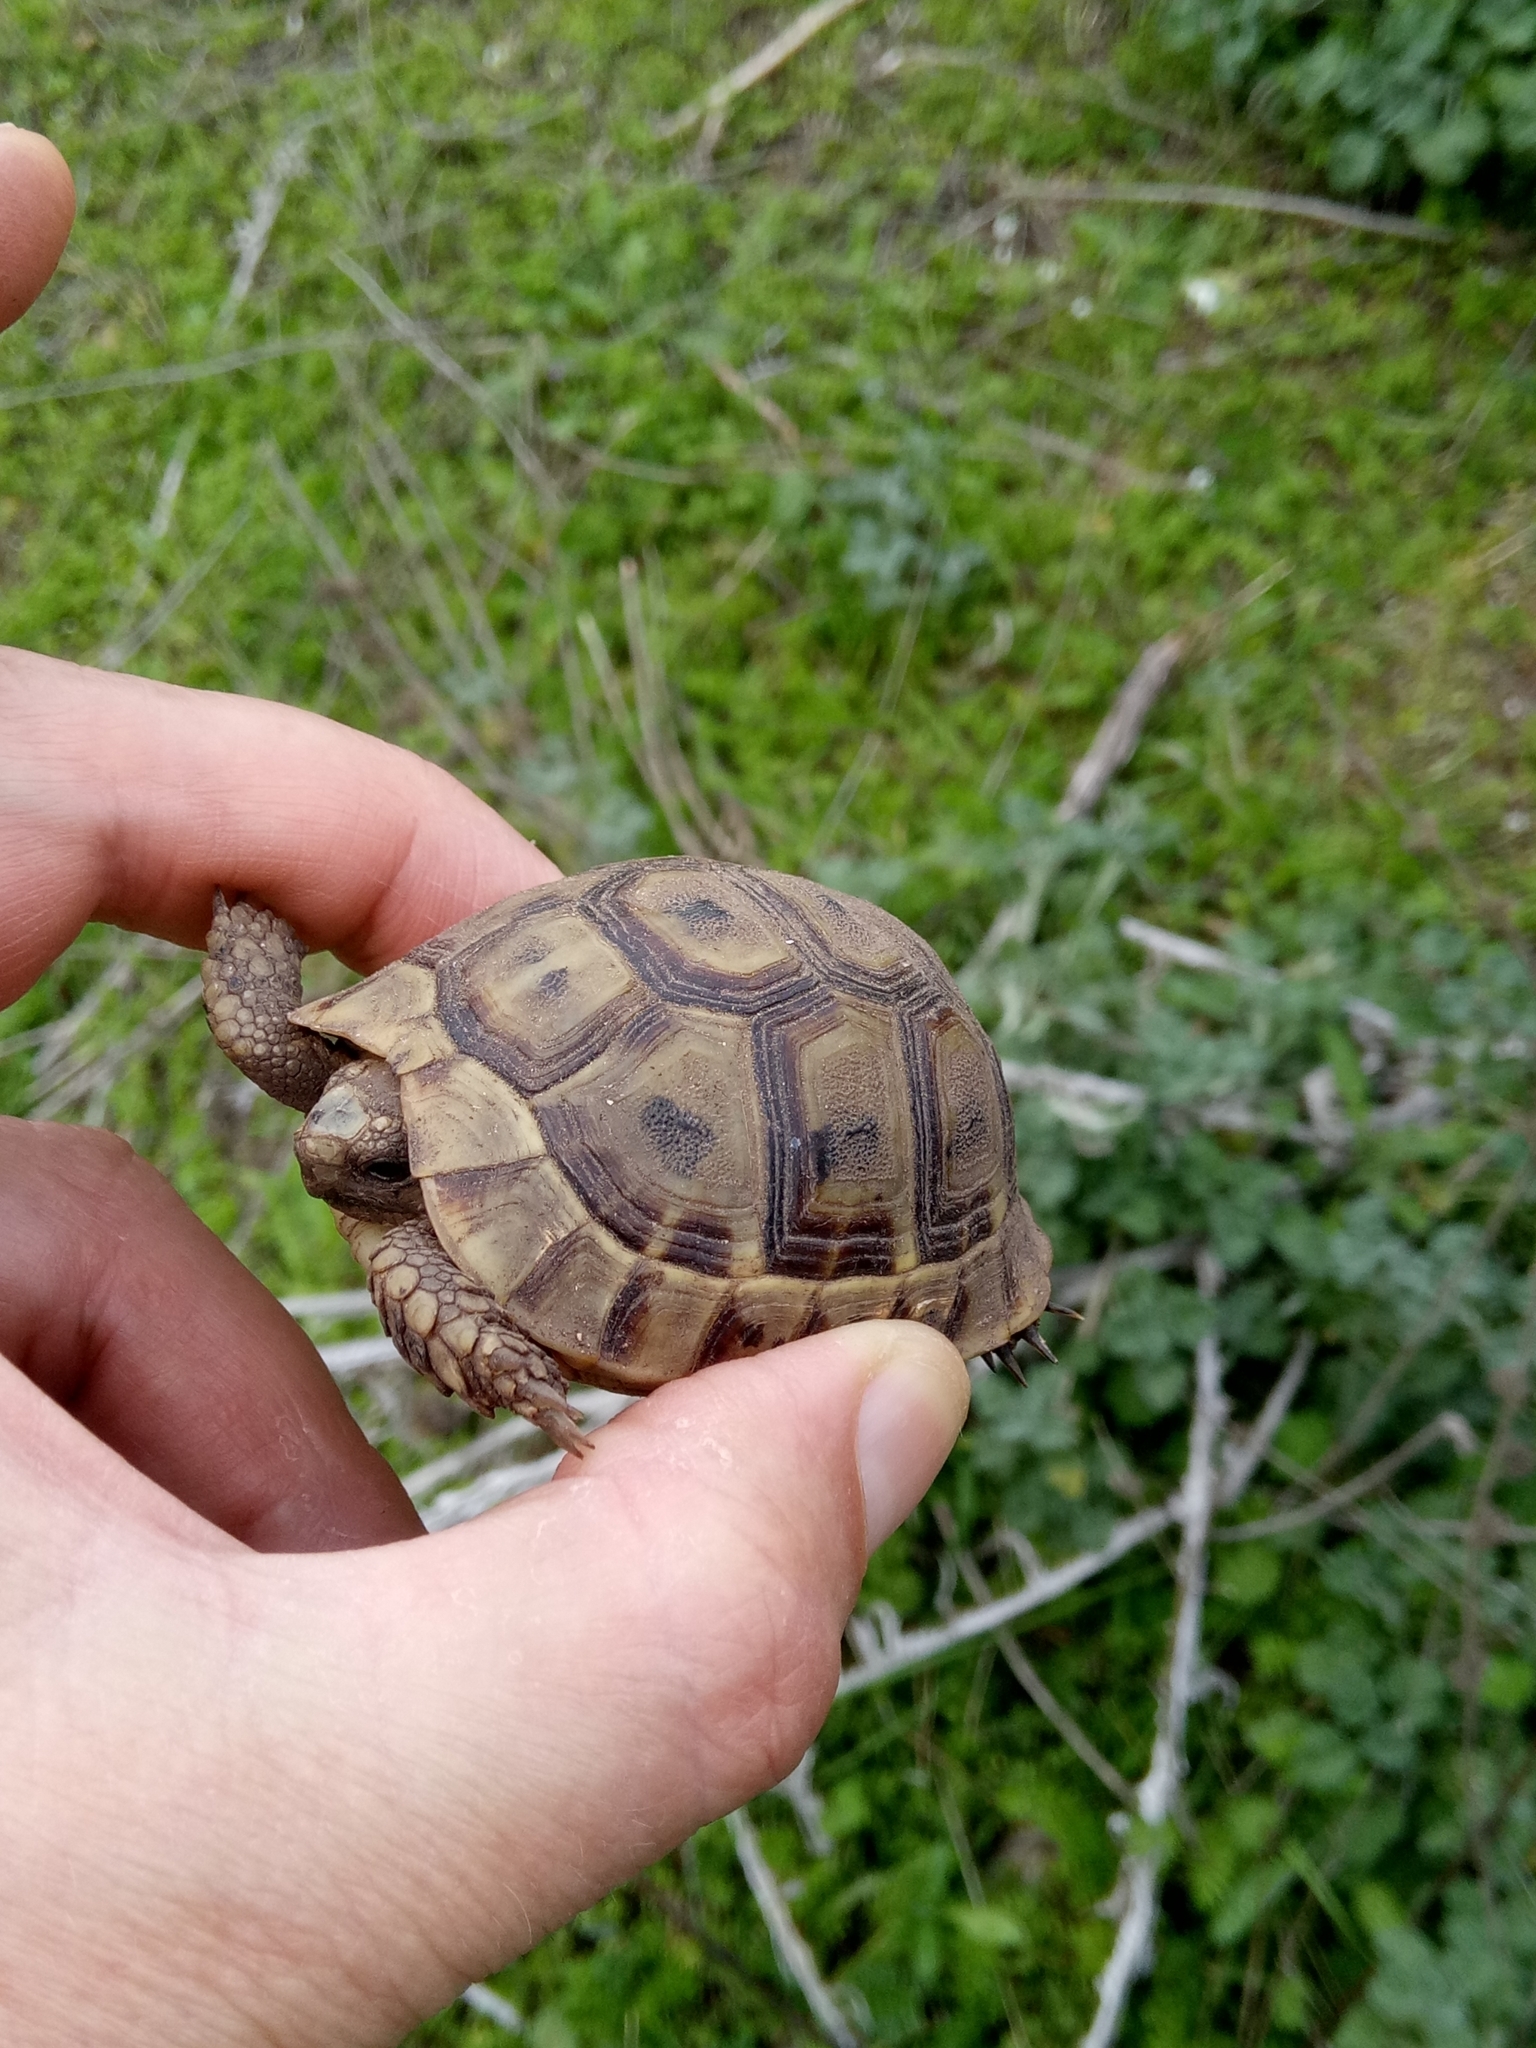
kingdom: Animalia
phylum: Chordata
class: Testudines
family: Testudinidae
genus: Testudo
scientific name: Testudo graeca
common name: Common tortoise
